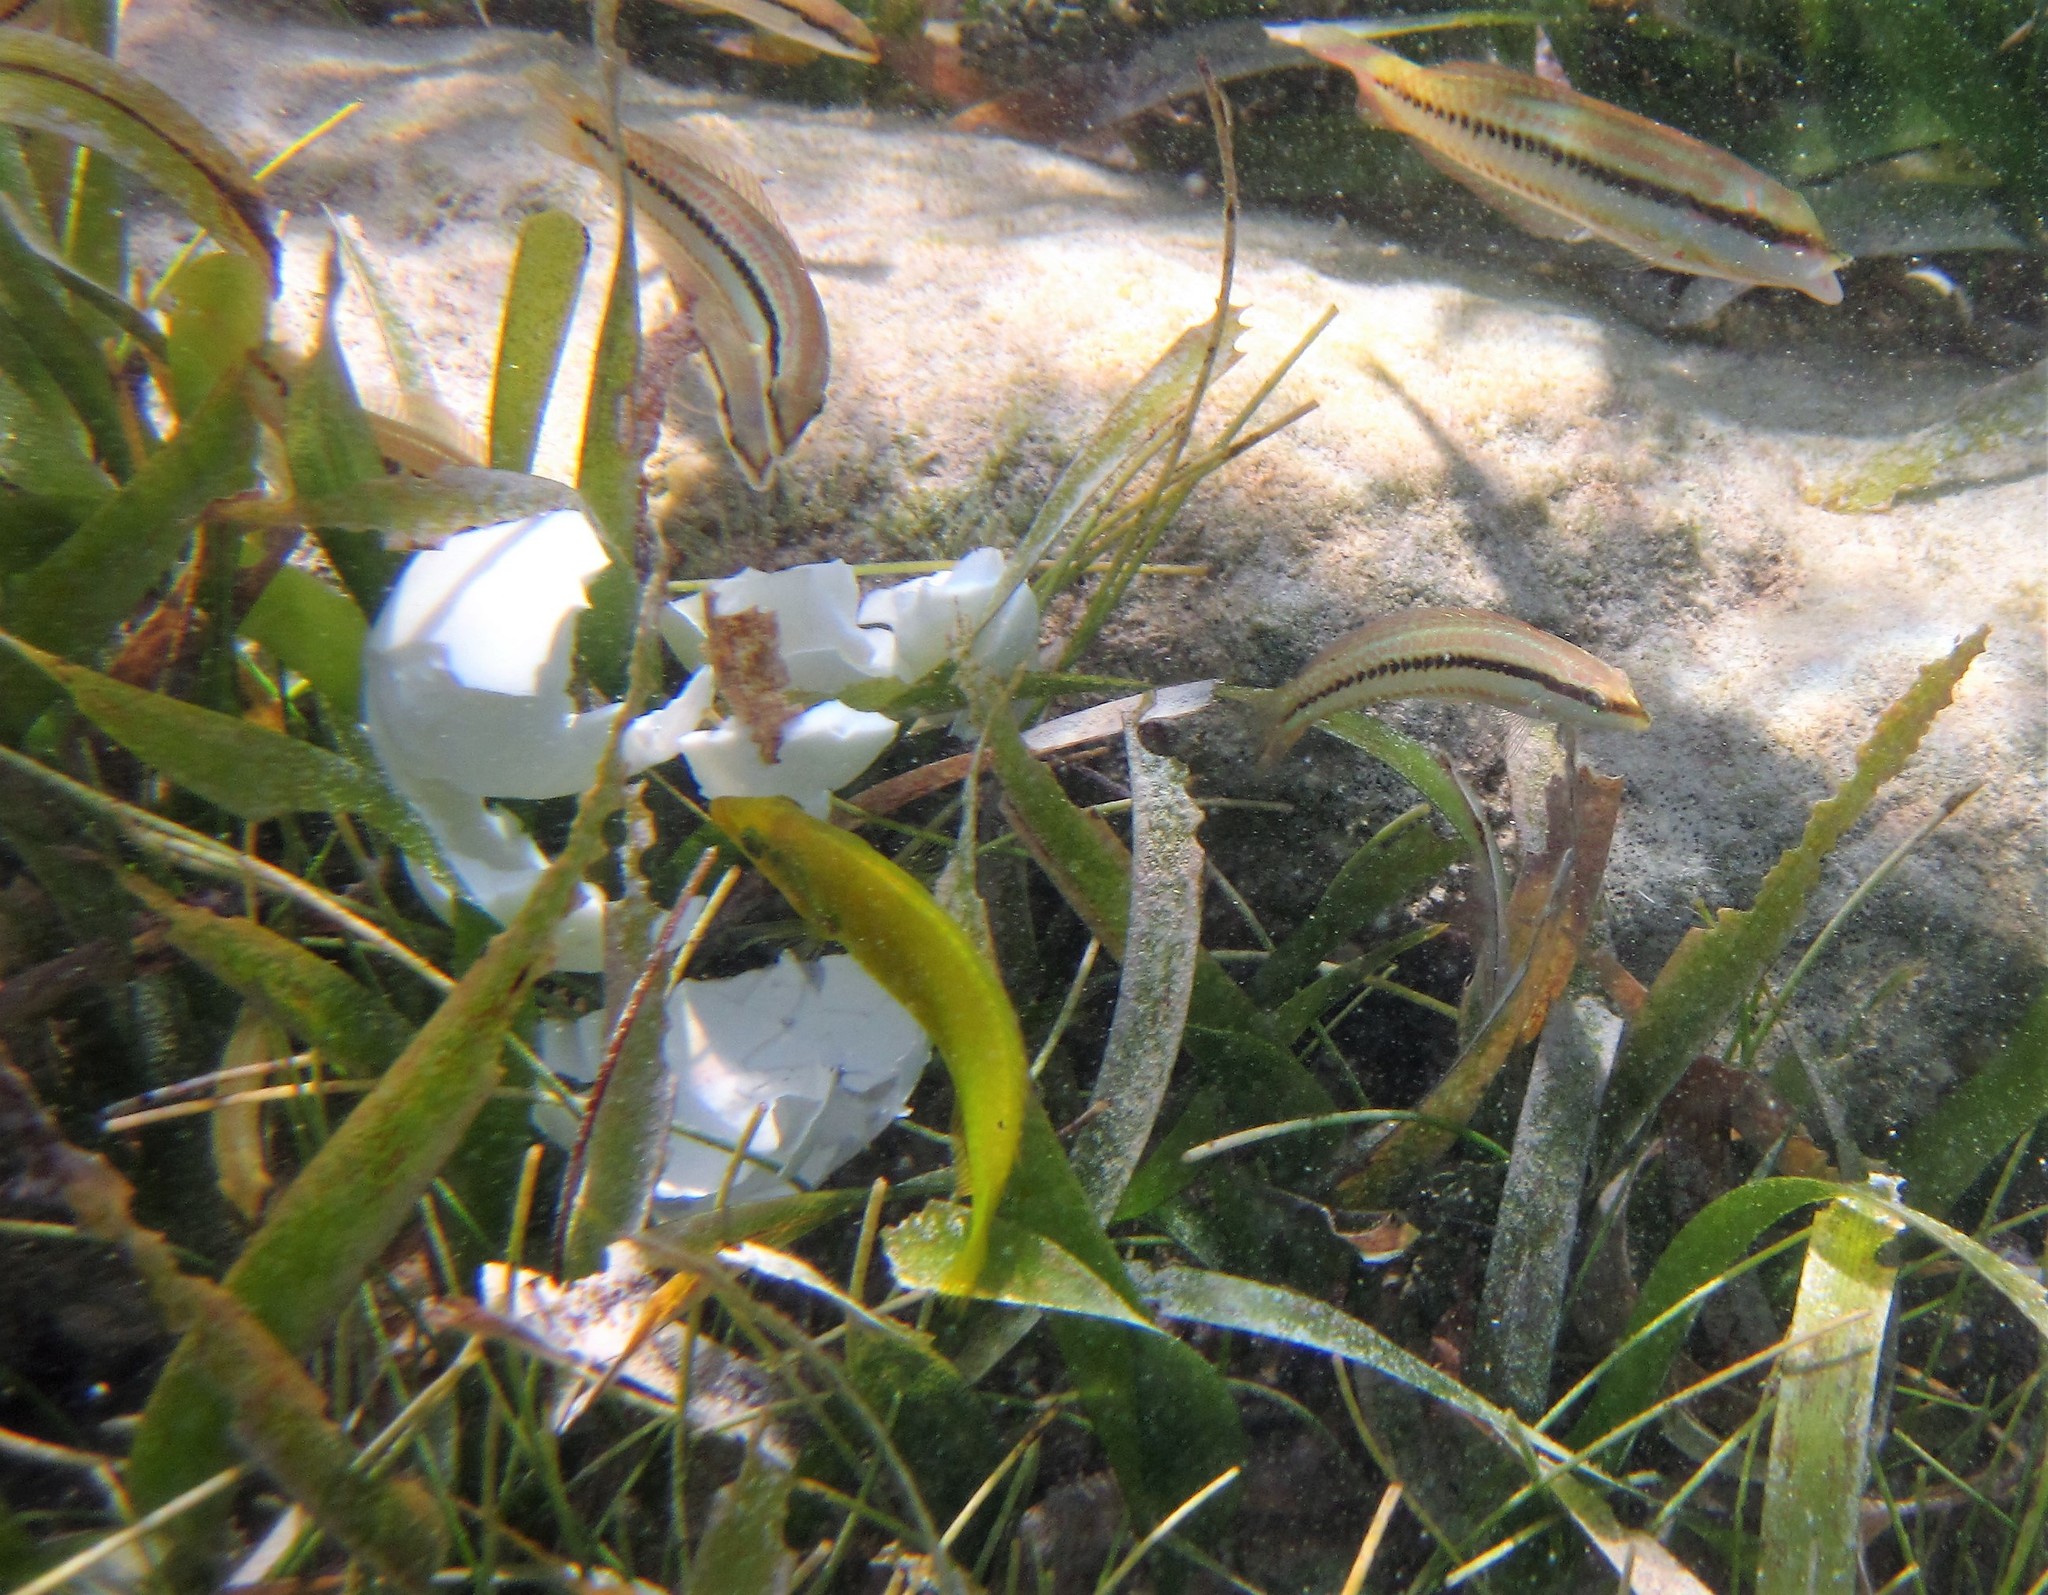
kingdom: Animalia
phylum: Chordata
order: Perciformes
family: Labridae
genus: Halichoeres
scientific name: Halichoeres poeyi
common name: Blackear wrasse
